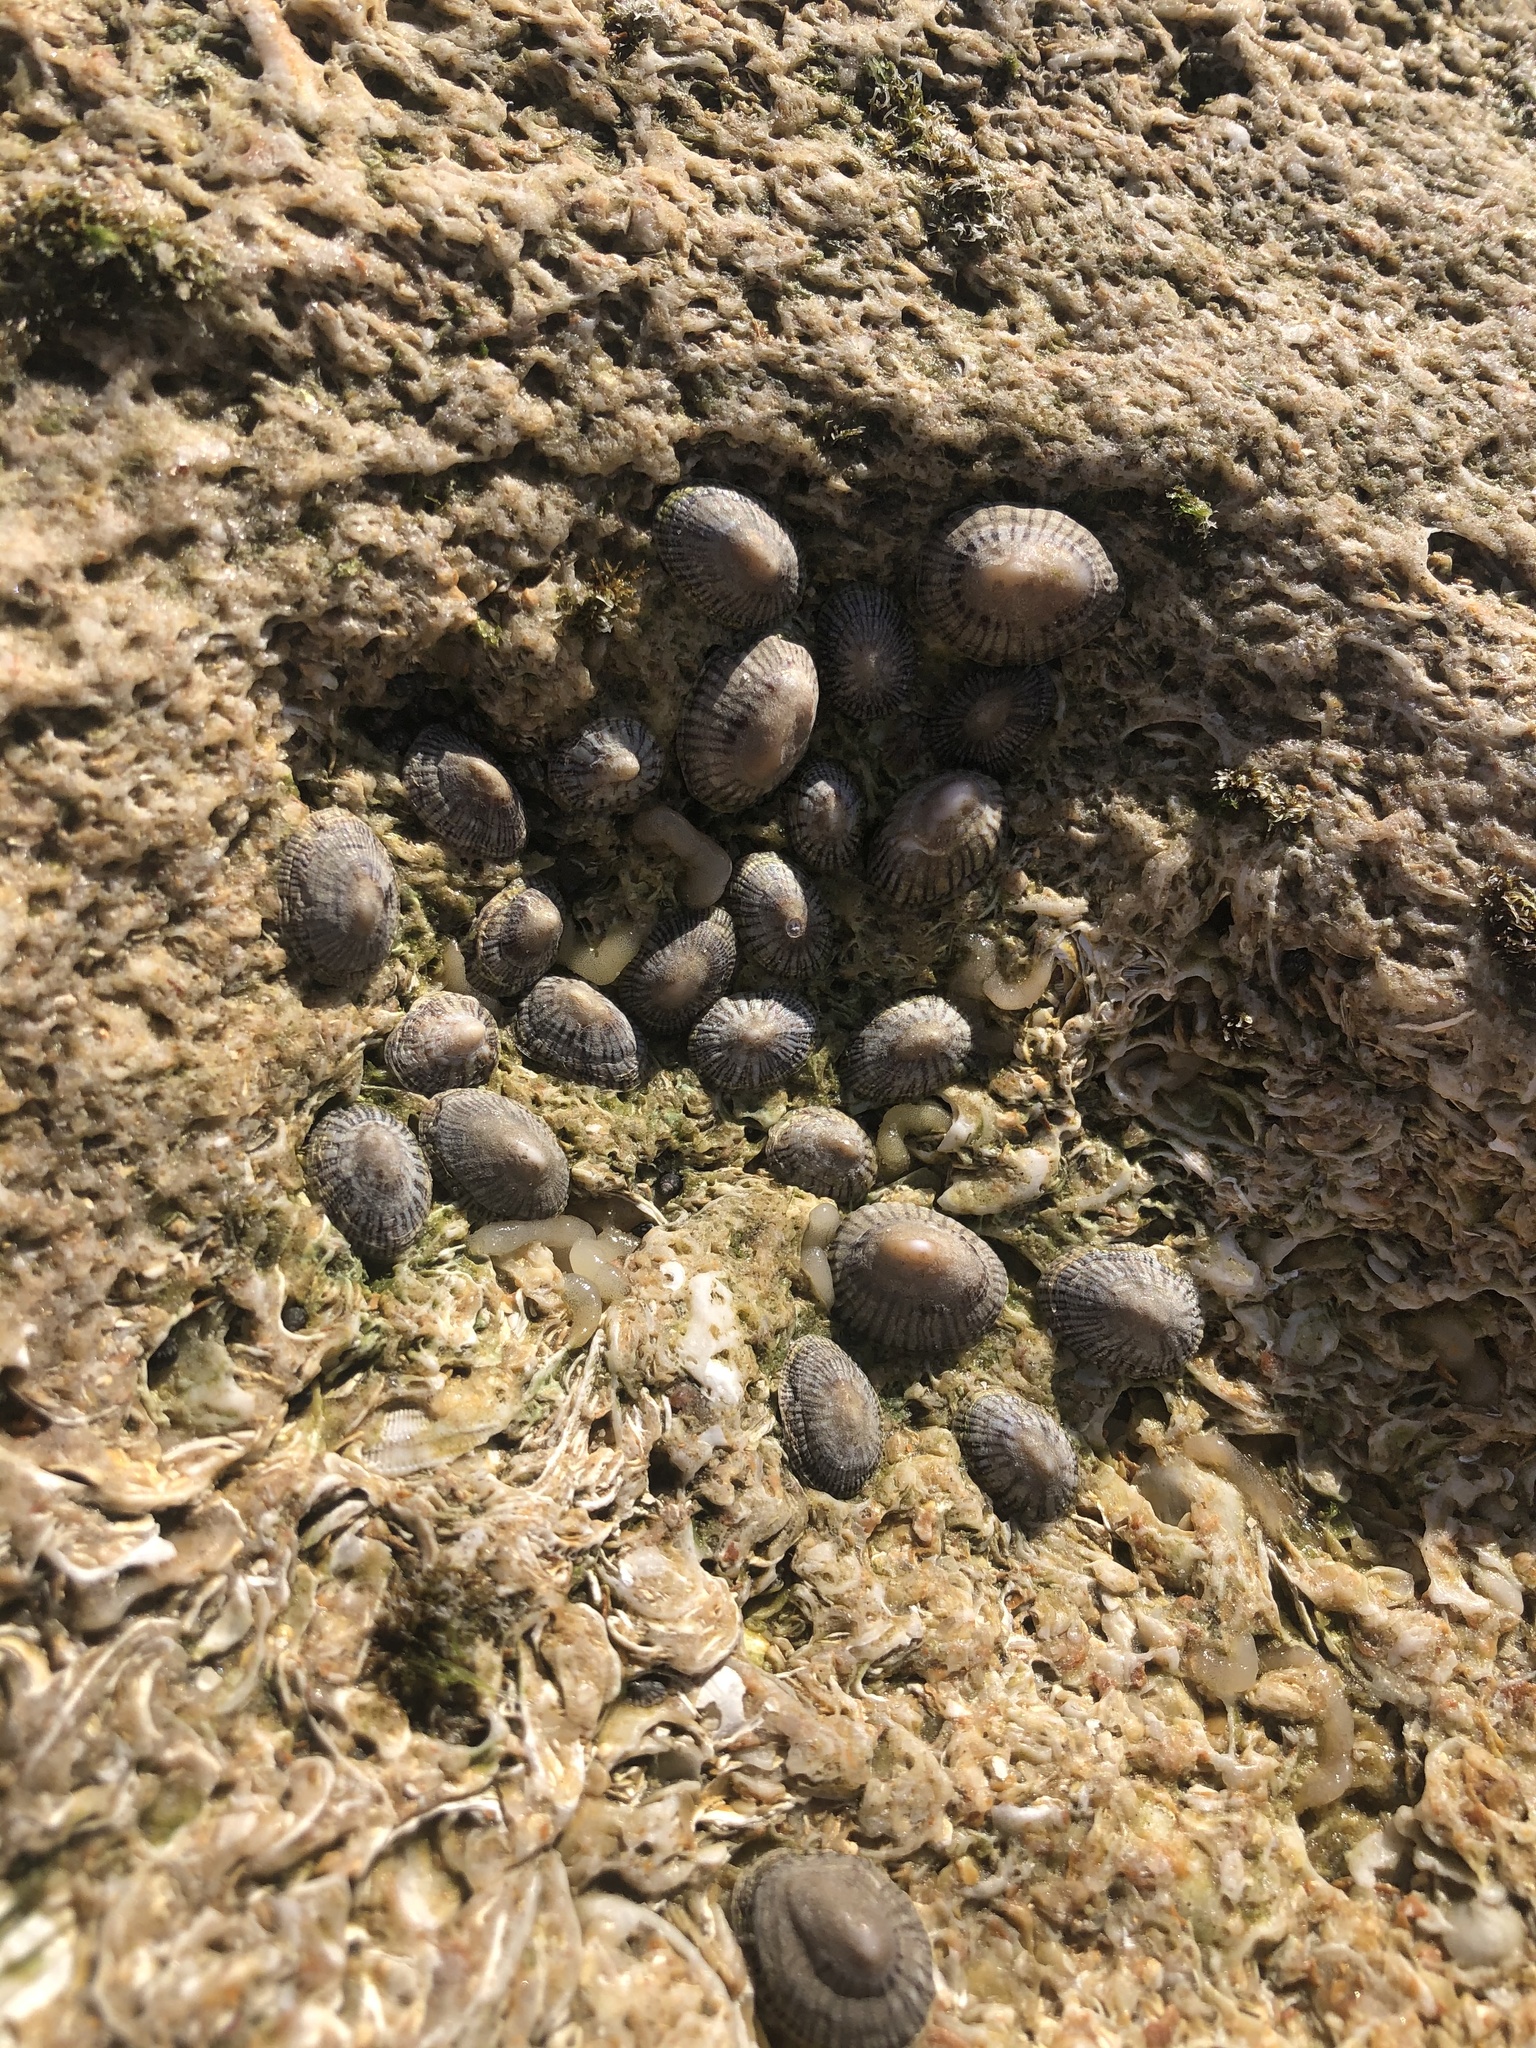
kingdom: Animalia
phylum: Mollusca
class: Gastropoda
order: Siphonariida
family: Siphonariidae
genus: Siphonaria
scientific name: Siphonaria naufragum
